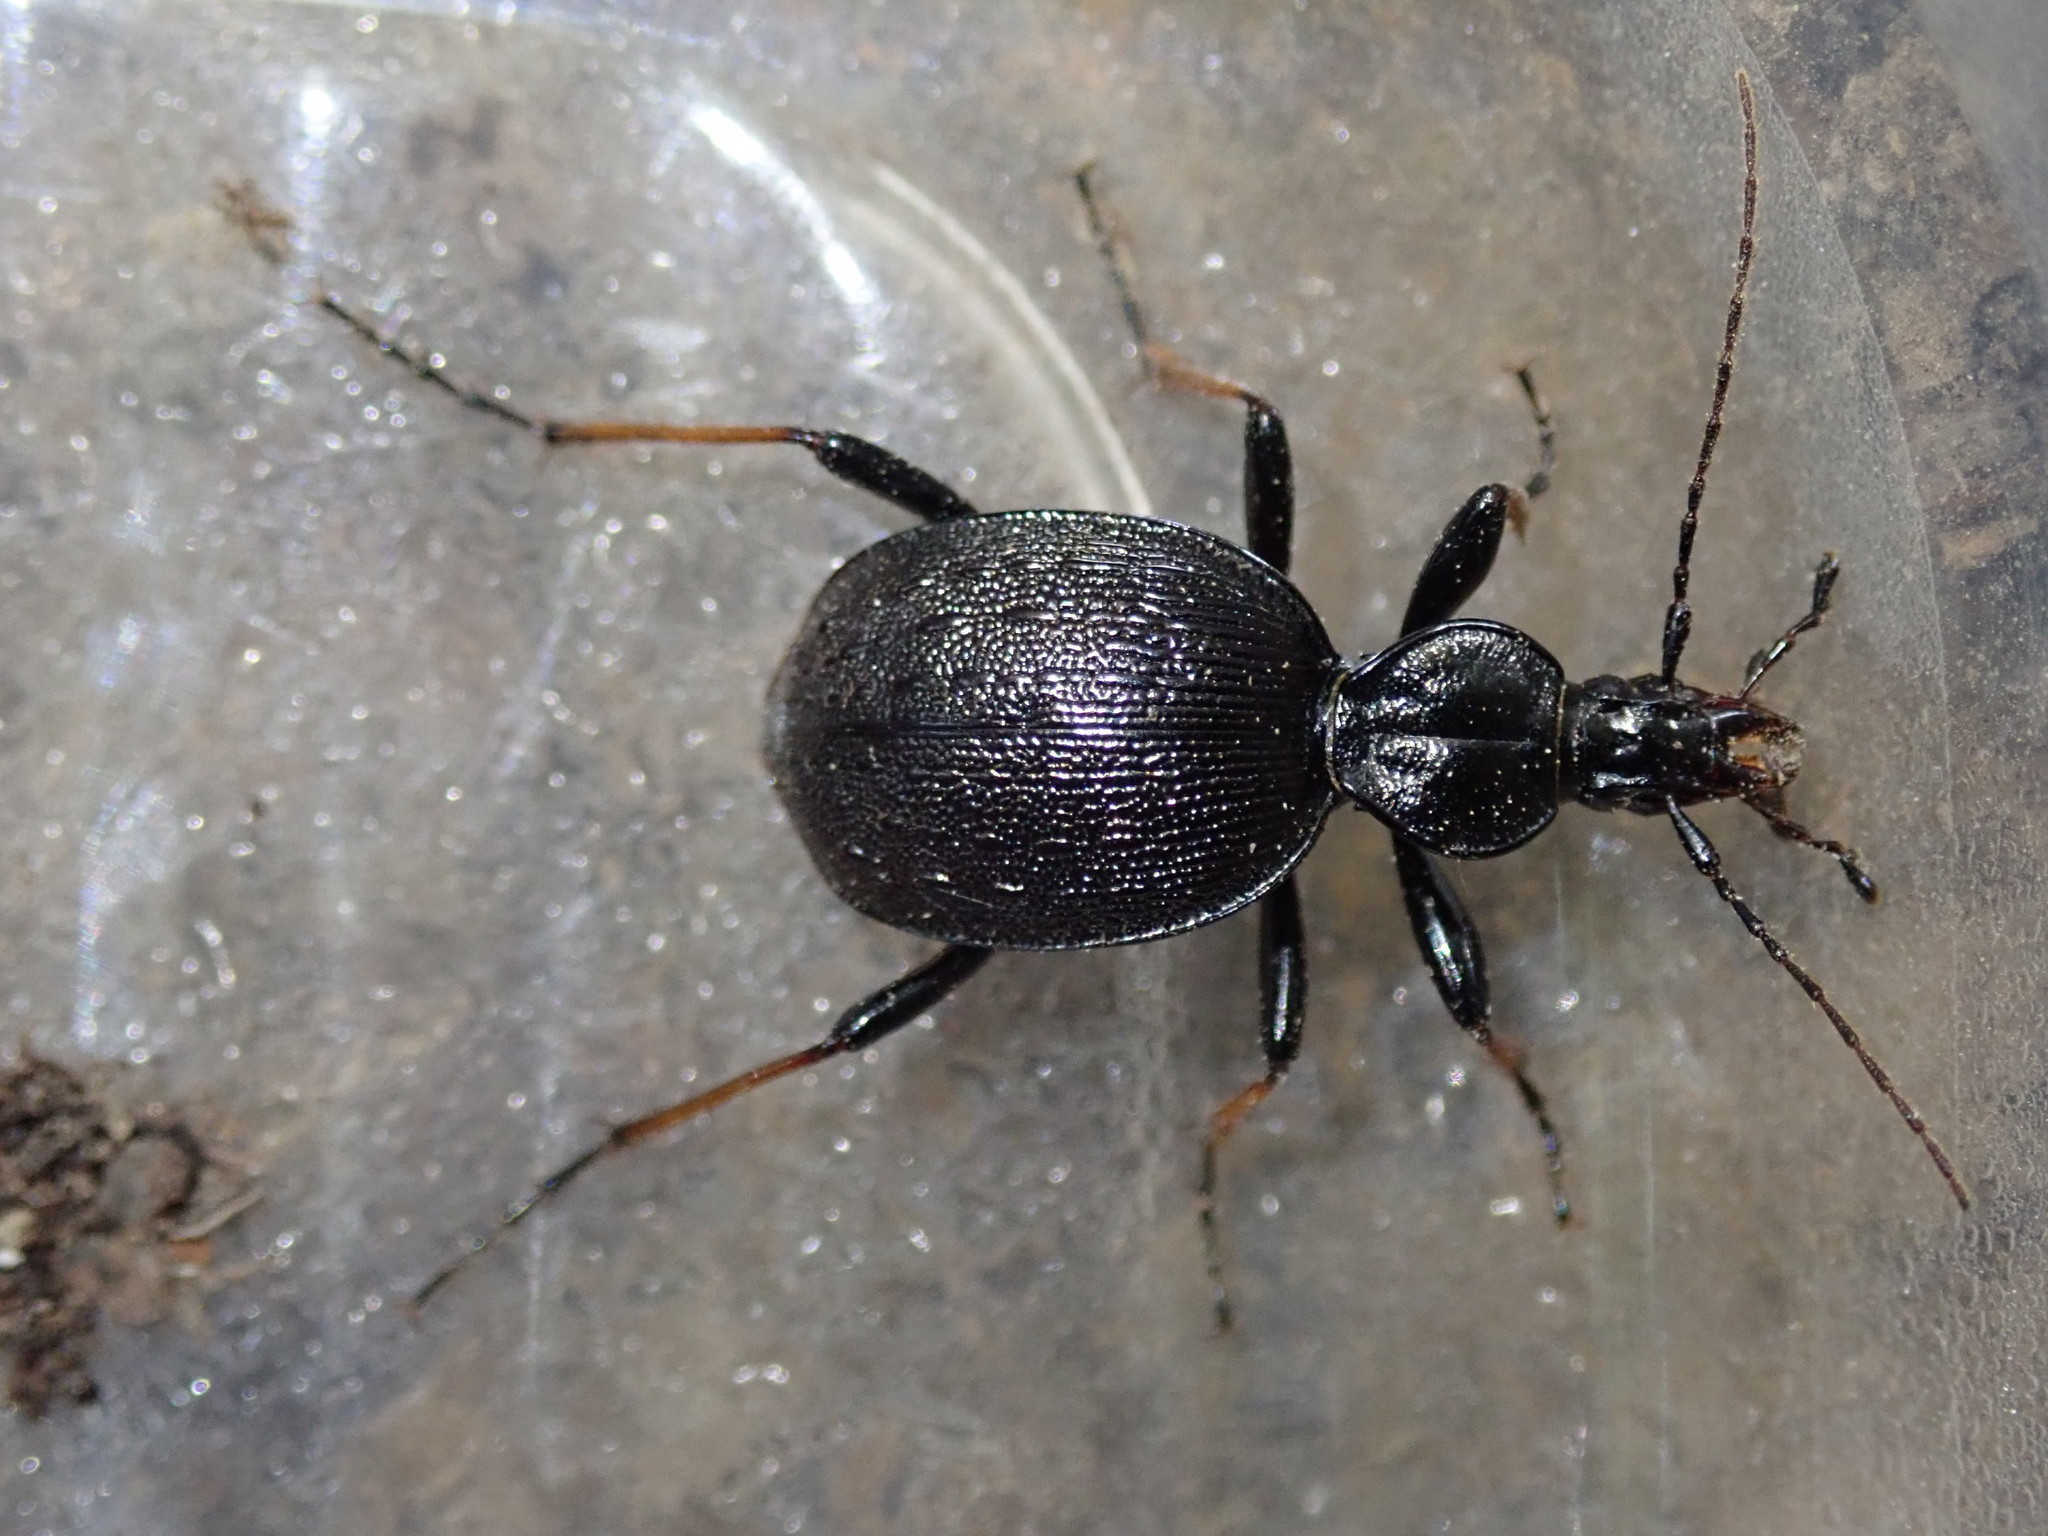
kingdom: Animalia
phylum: Arthropoda
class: Insecta
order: Coleoptera
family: Carabidae
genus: Cychrus
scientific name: Cychrus attenuatus
